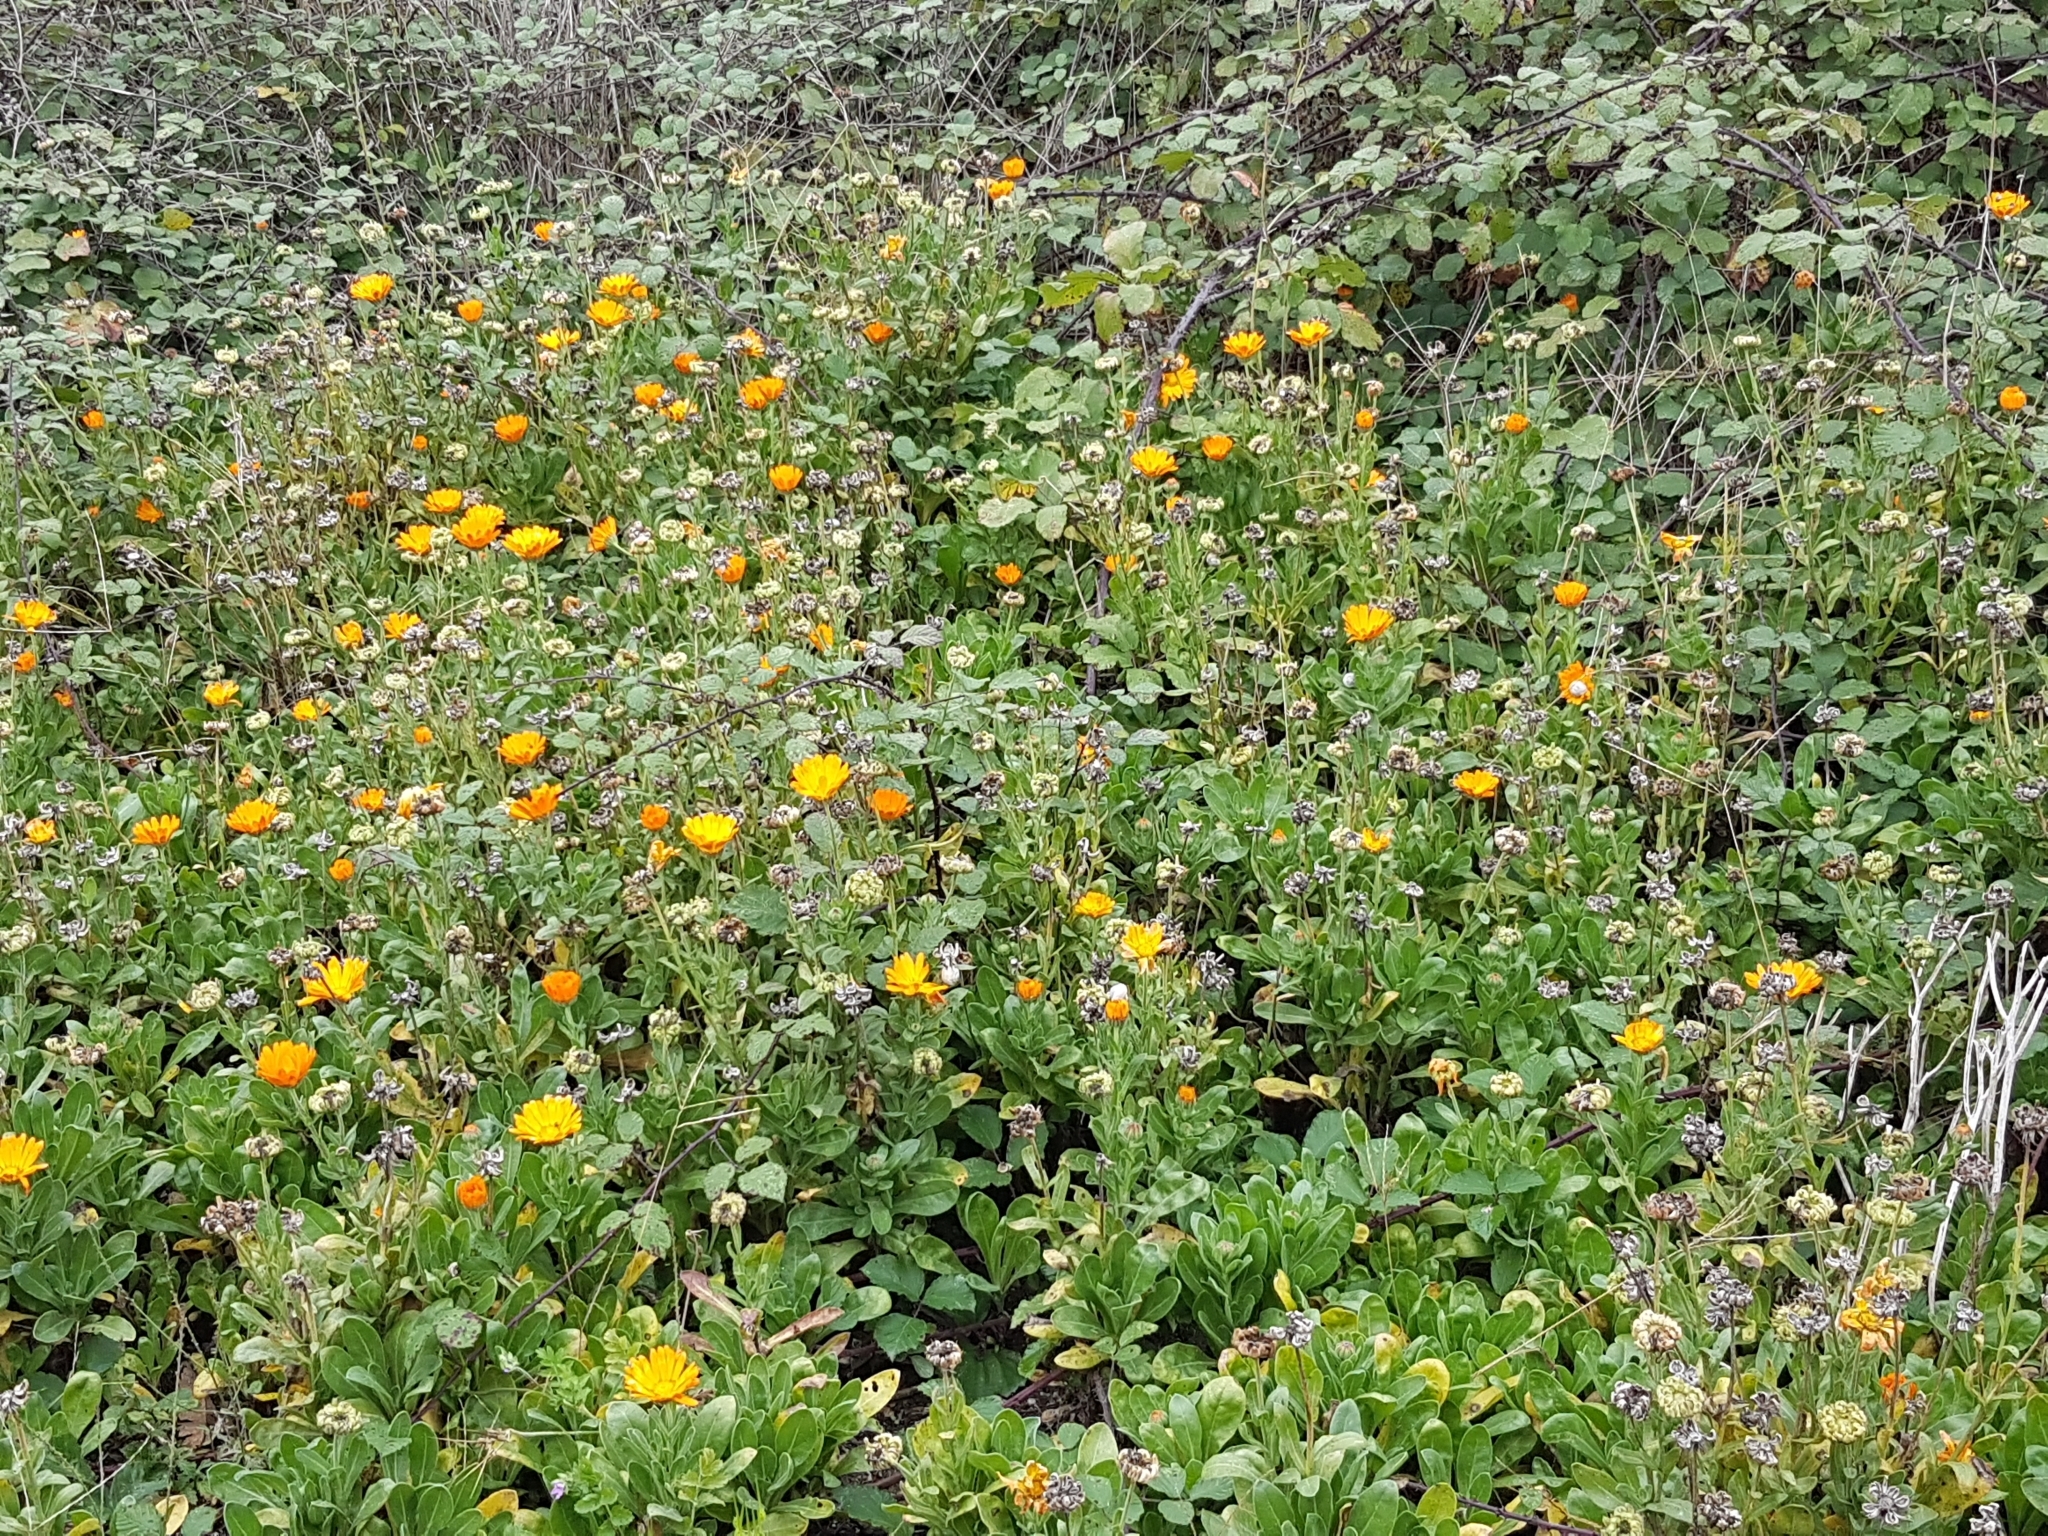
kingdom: Plantae
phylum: Tracheophyta
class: Magnoliopsida
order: Asterales
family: Asteraceae
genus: Calendula
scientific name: Calendula officinalis
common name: Pot marigold
